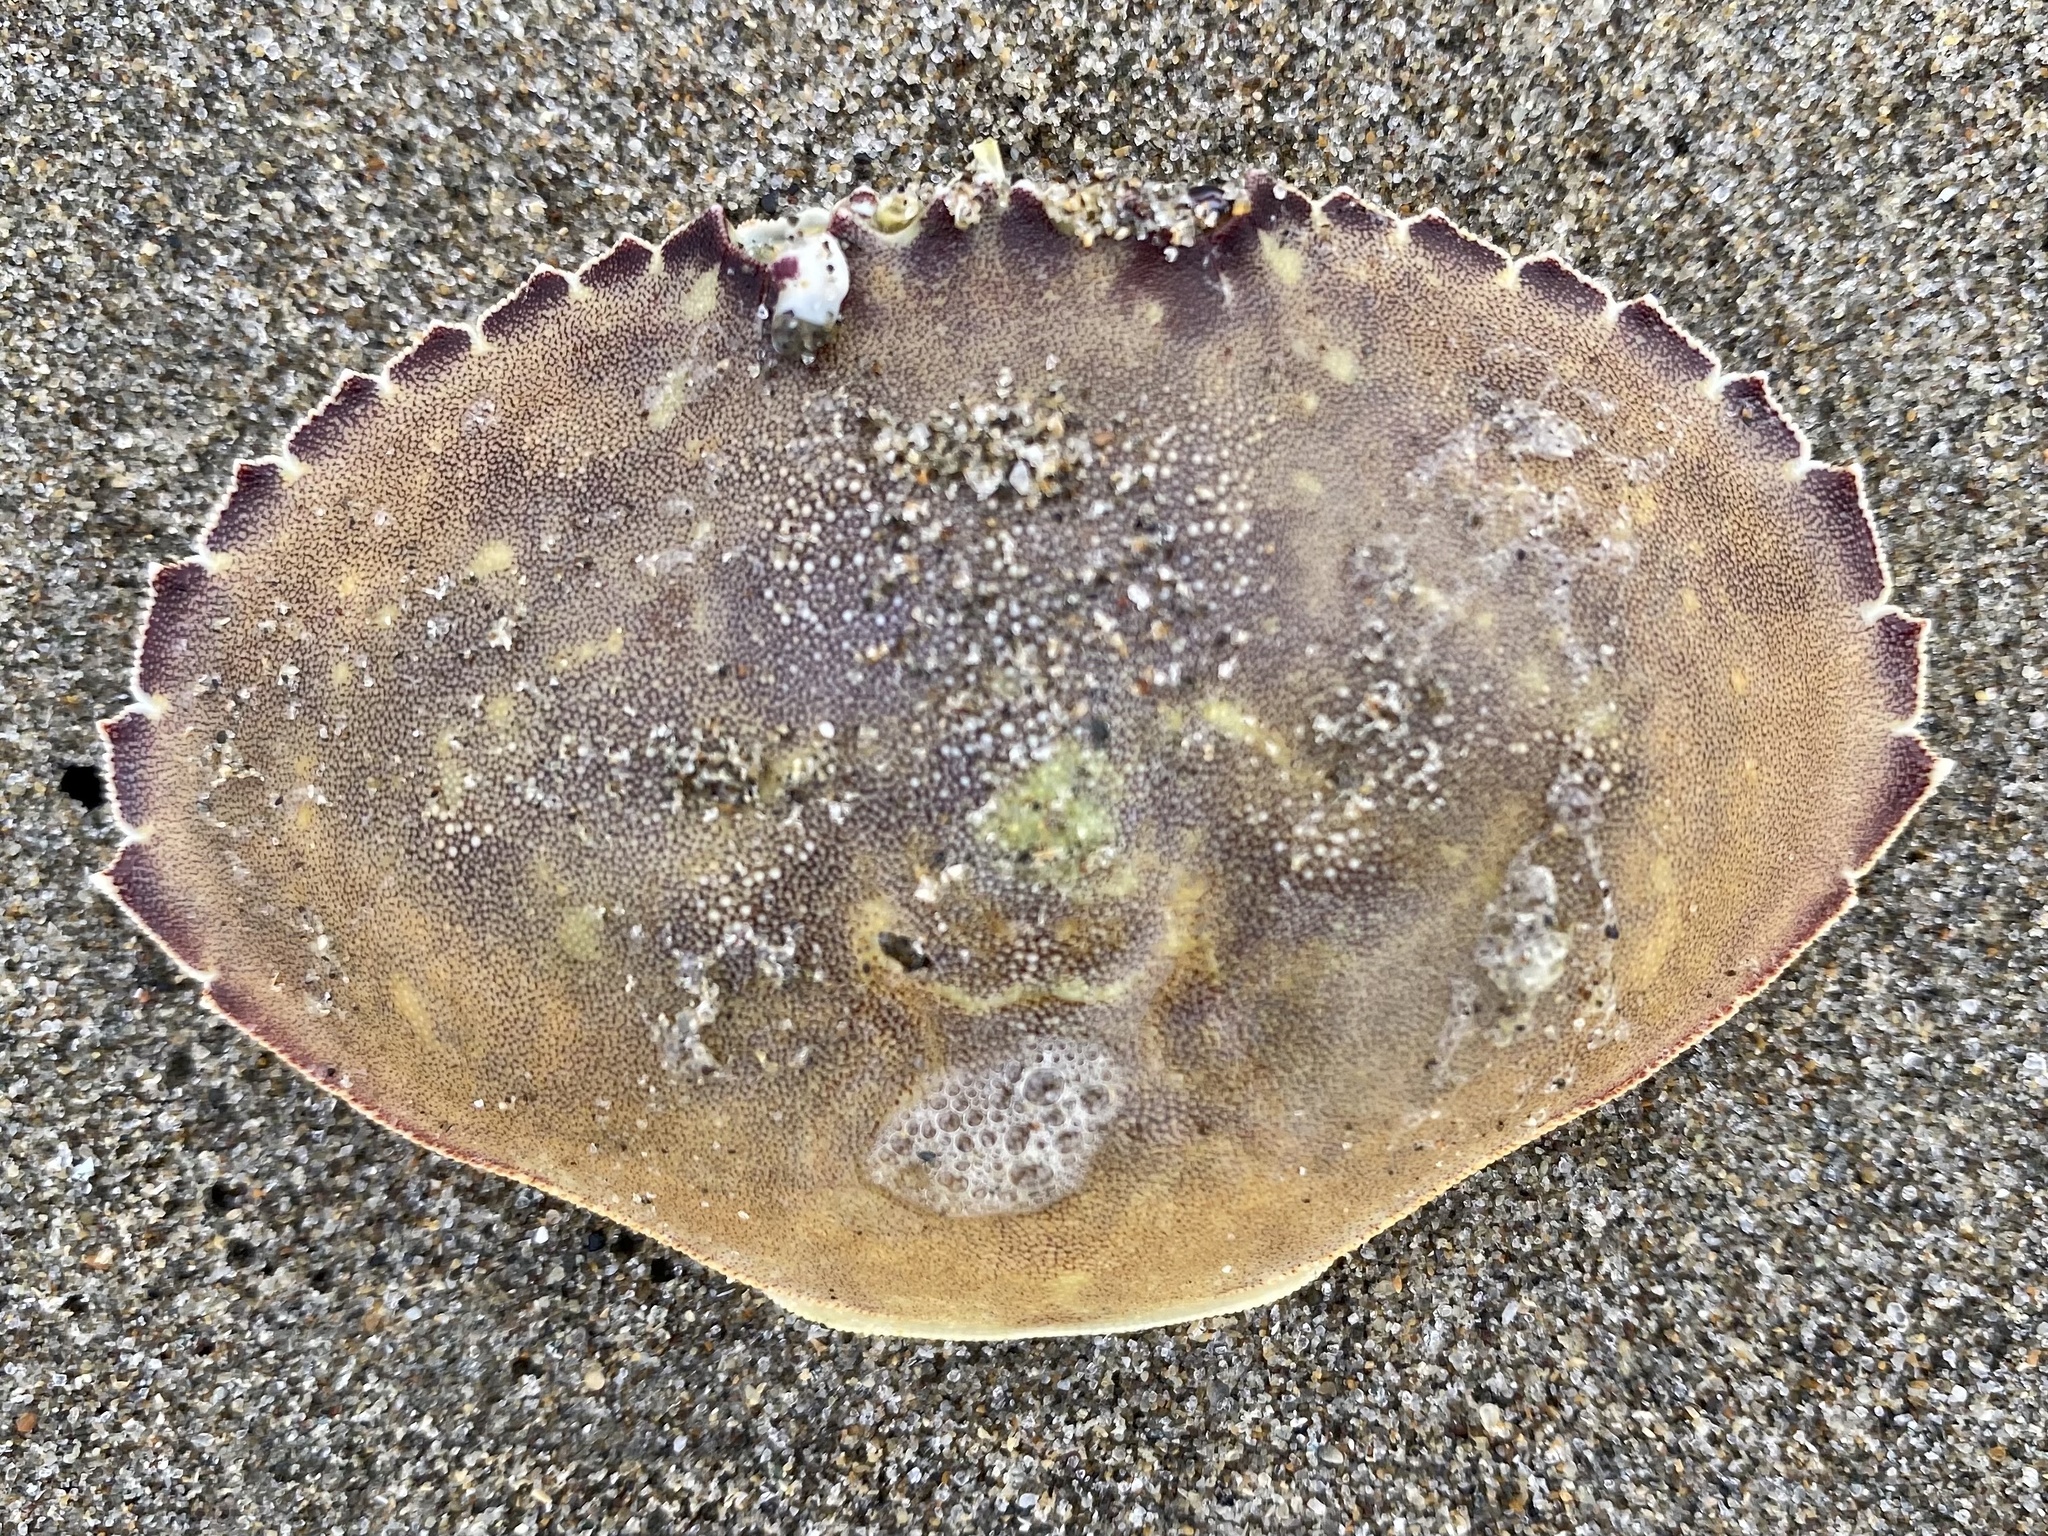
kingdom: Animalia
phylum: Arthropoda
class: Malacostraca
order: Decapoda
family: Cancridae
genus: Metacarcinus
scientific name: Metacarcinus gracilis
